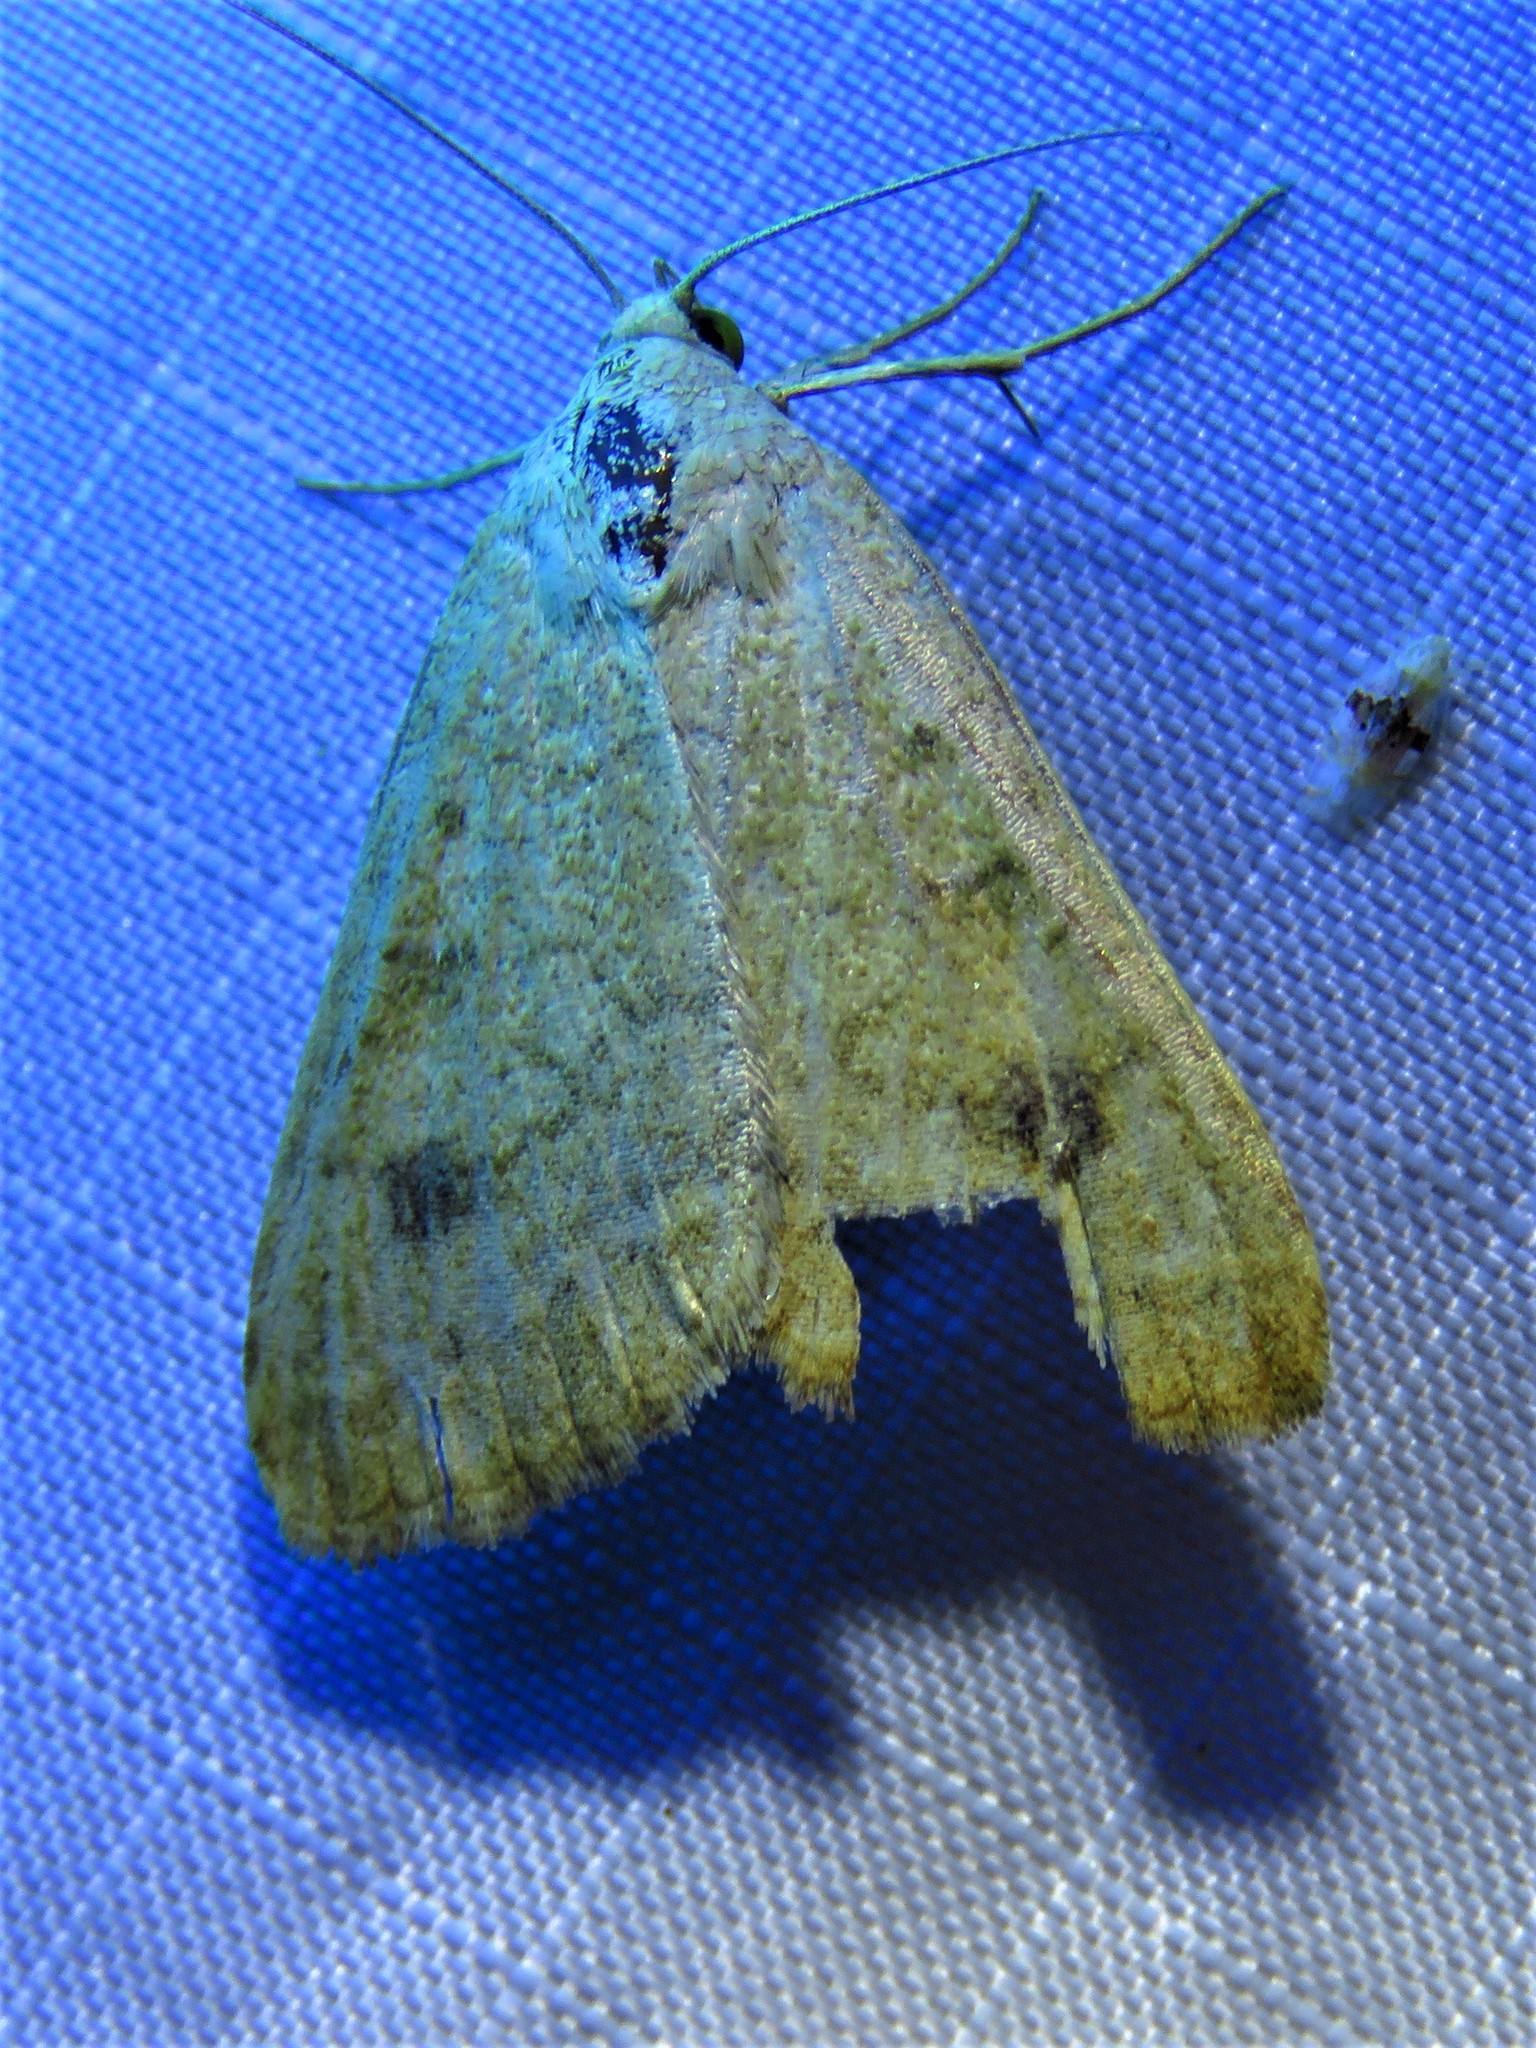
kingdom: Animalia
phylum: Arthropoda
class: Insecta
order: Lepidoptera
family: Erebidae
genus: Scolecocampa
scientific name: Scolecocampa liburna
